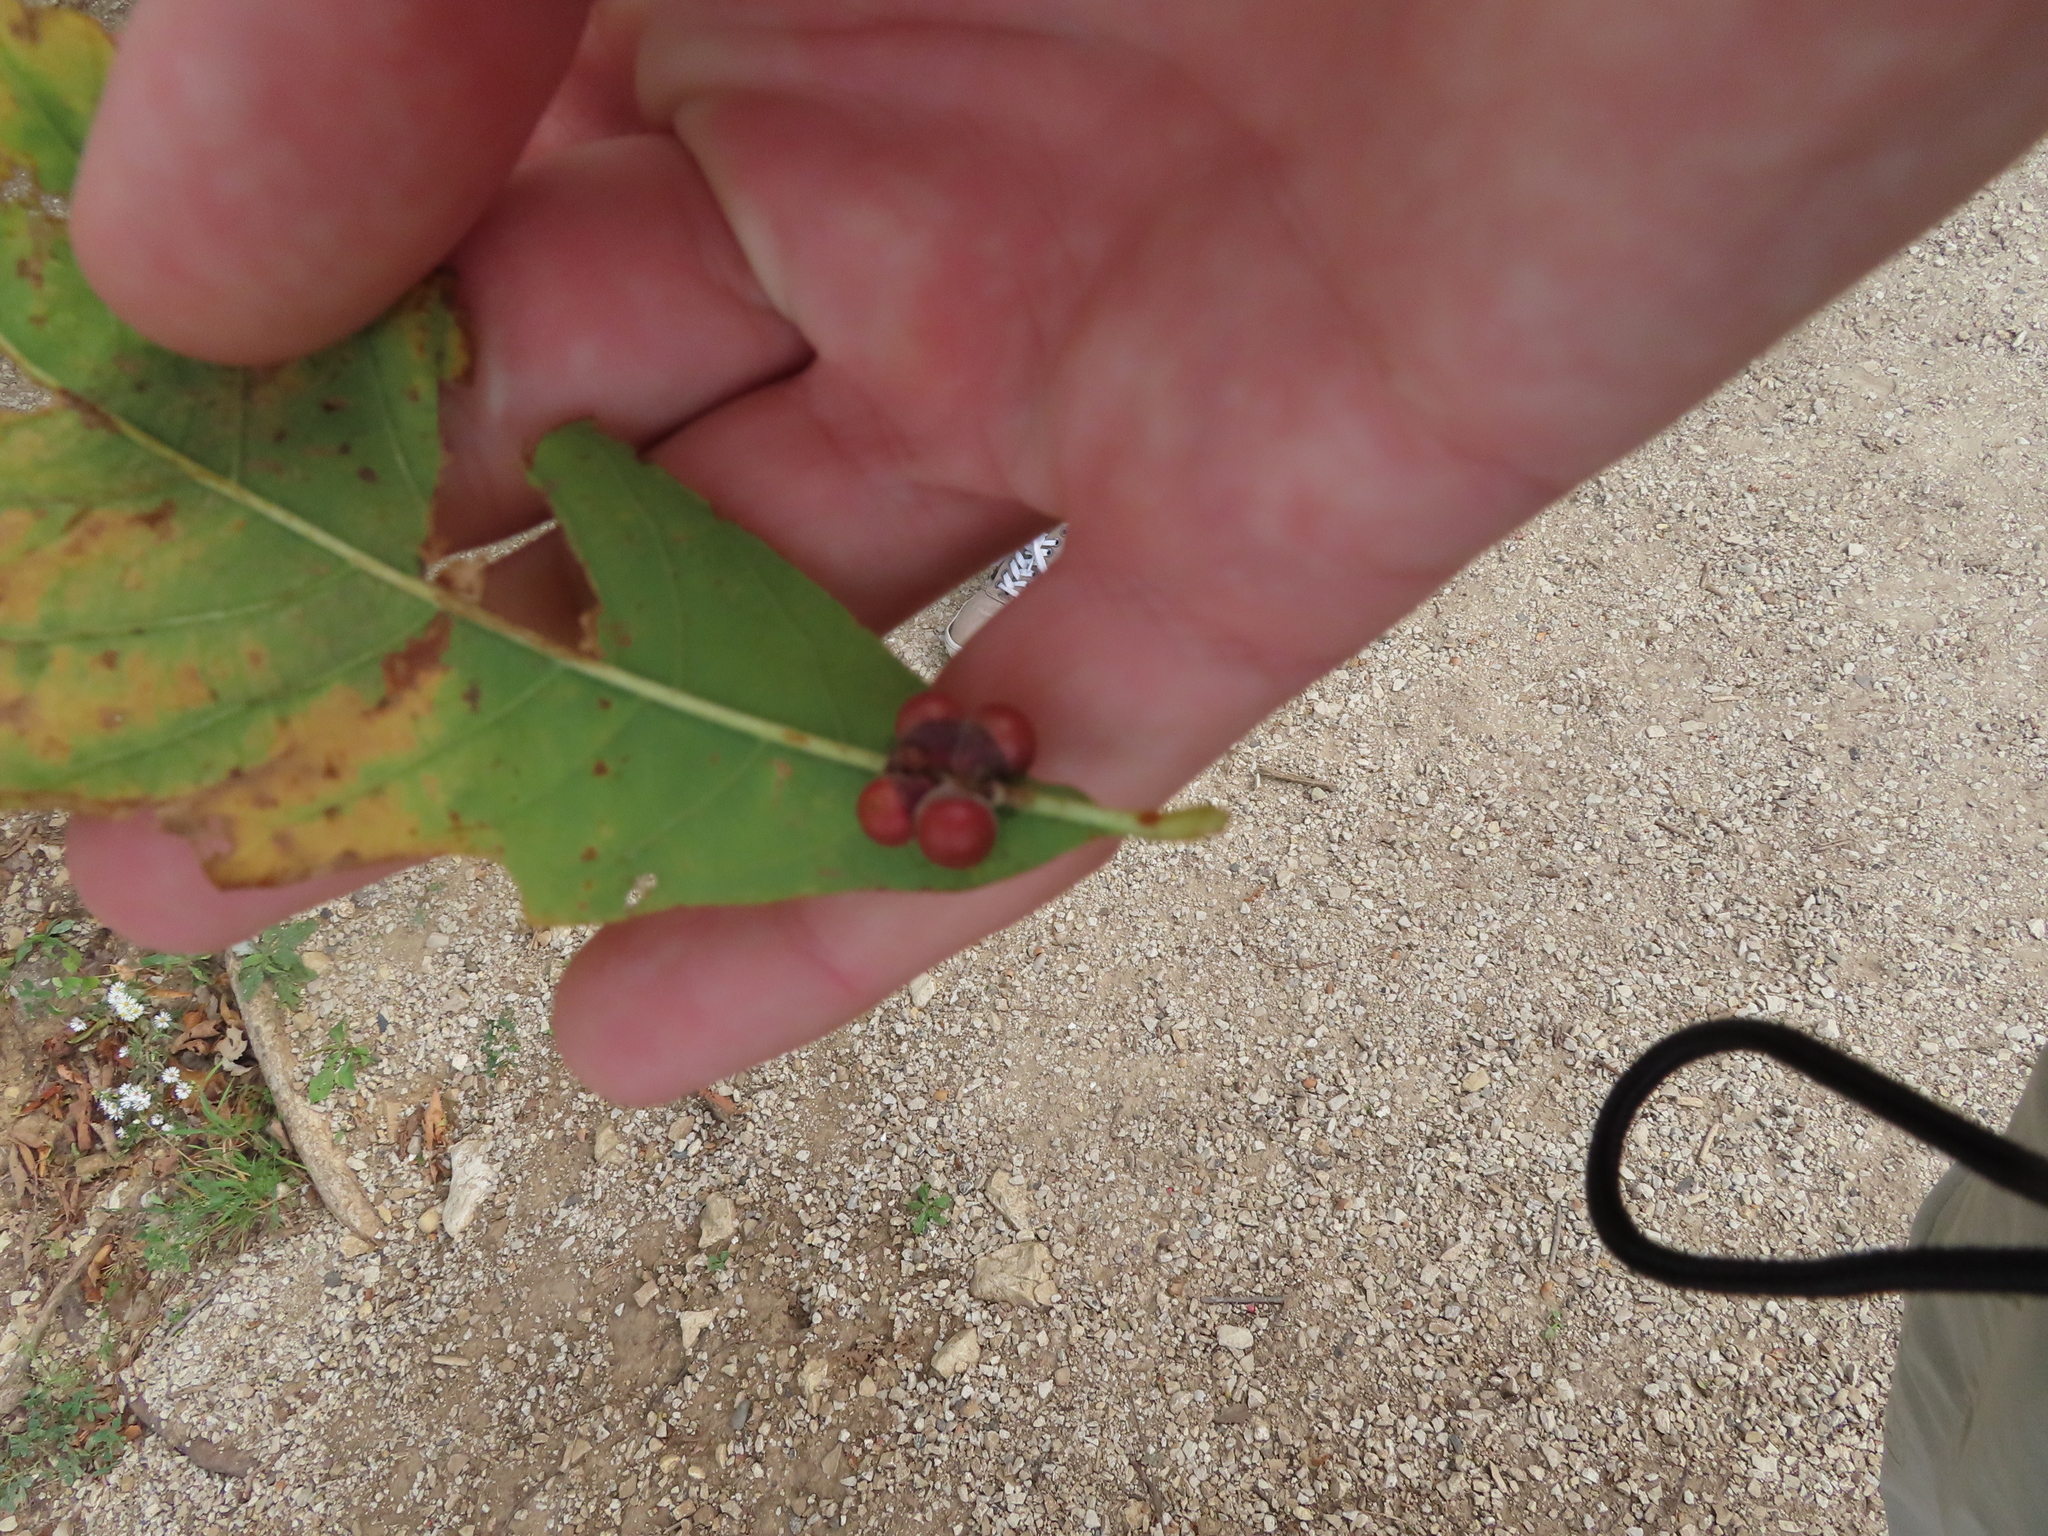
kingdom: Animalia
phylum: Arthropoda
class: Insecta
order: Hymenoptera
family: Cynipidae
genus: Andricus
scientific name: Andricus
